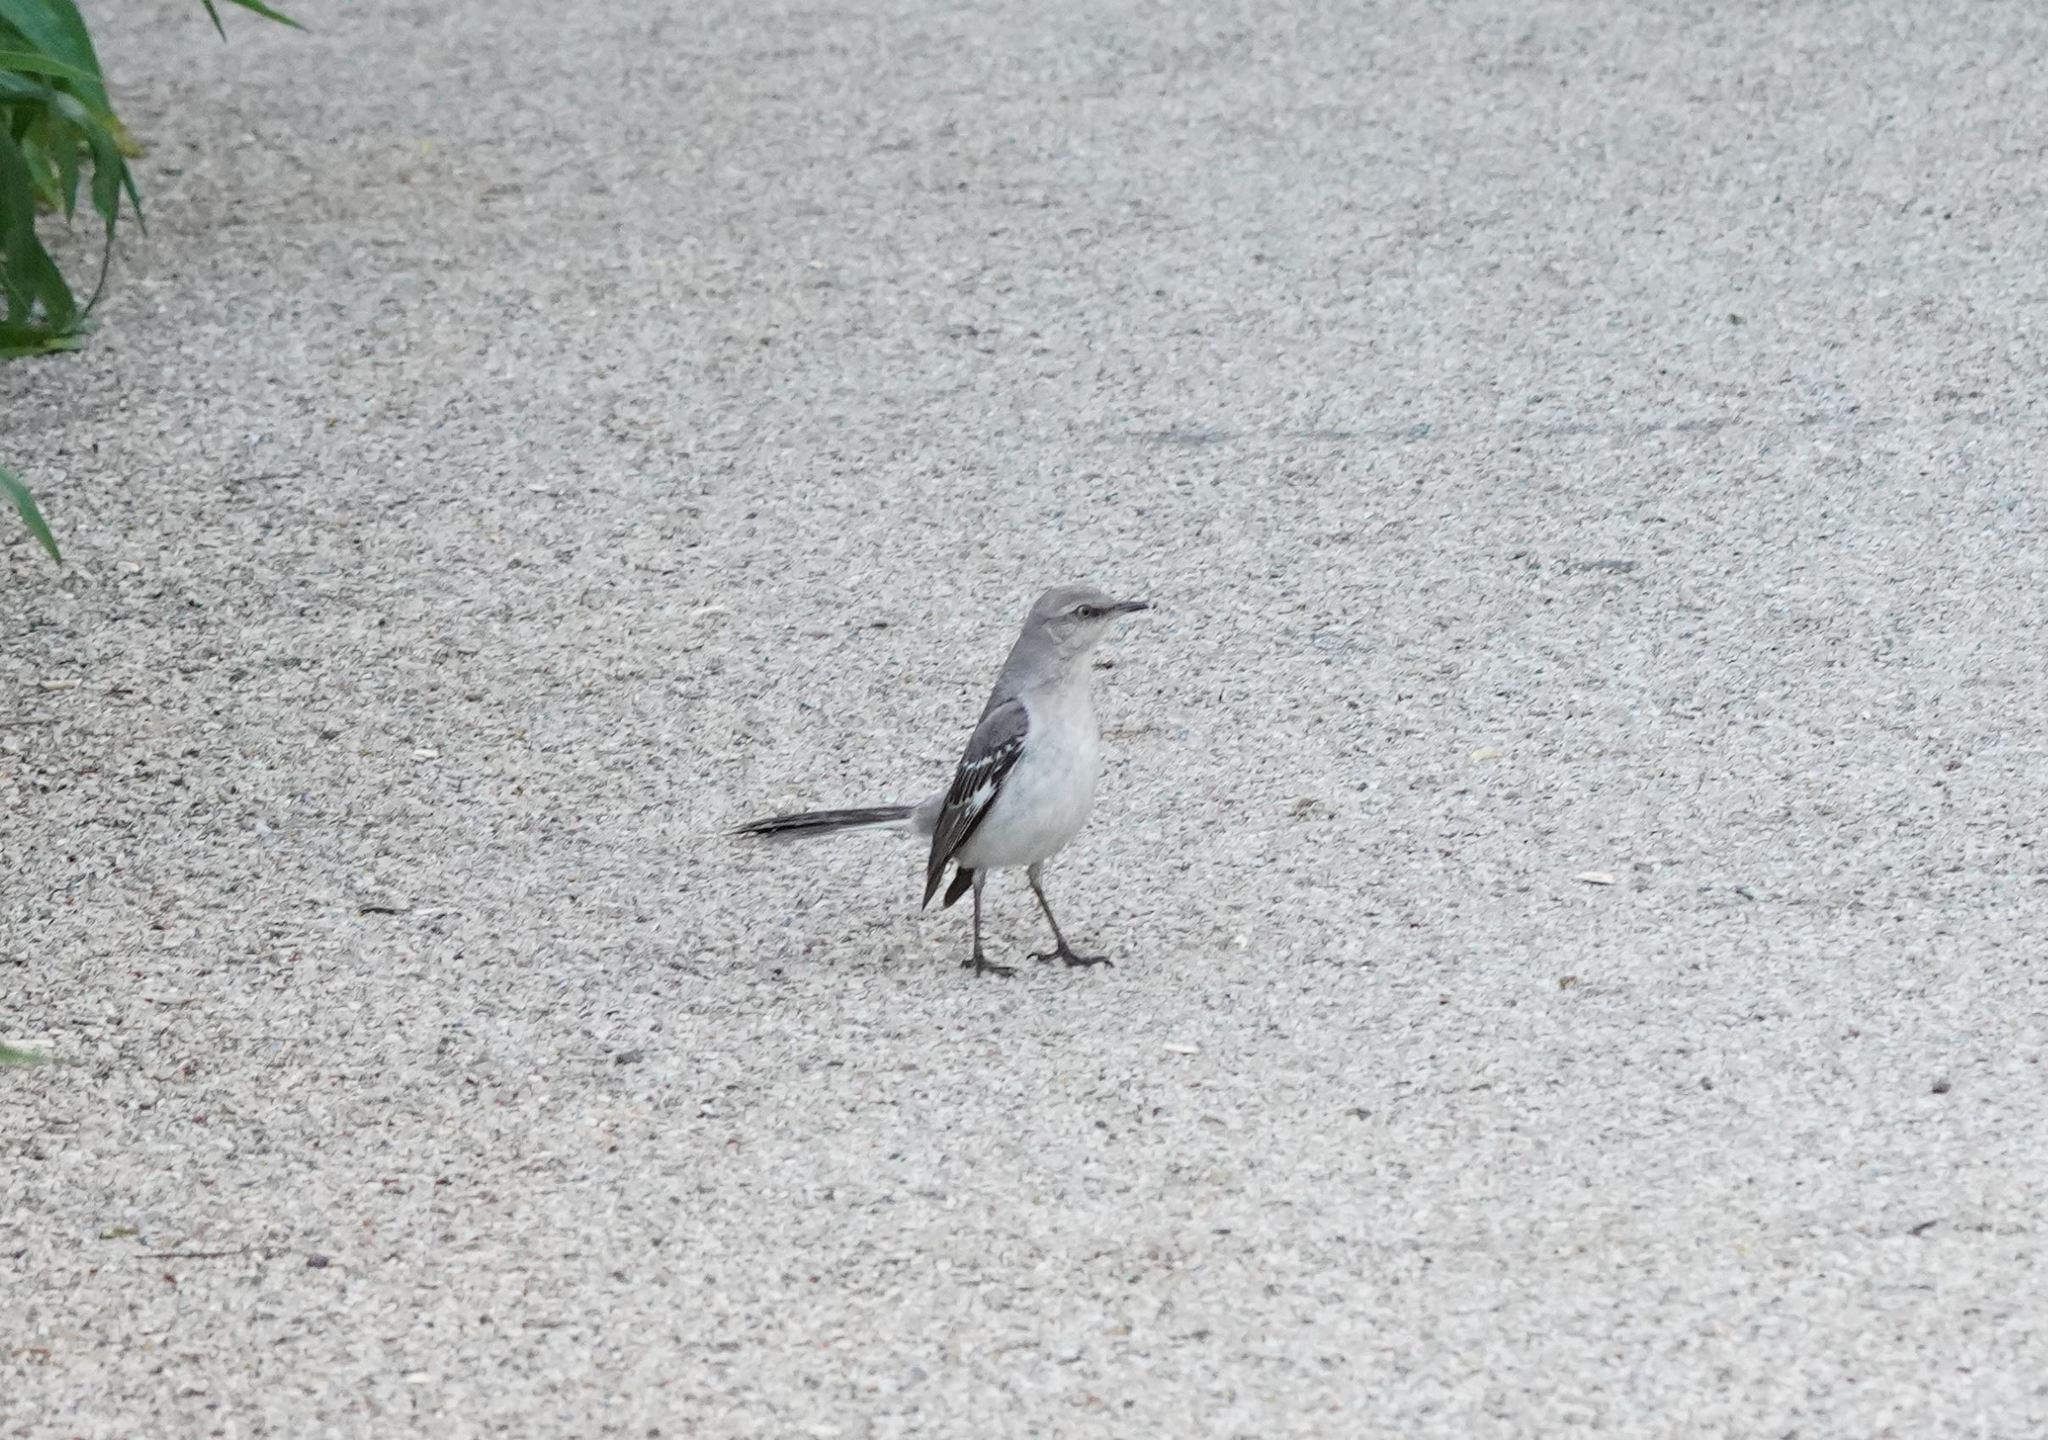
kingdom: Animalia
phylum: Chordata
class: Aves
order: Passeriformes
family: Mimidae
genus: Mimus
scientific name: Mimus polyglottos
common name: Northern mockingbird
